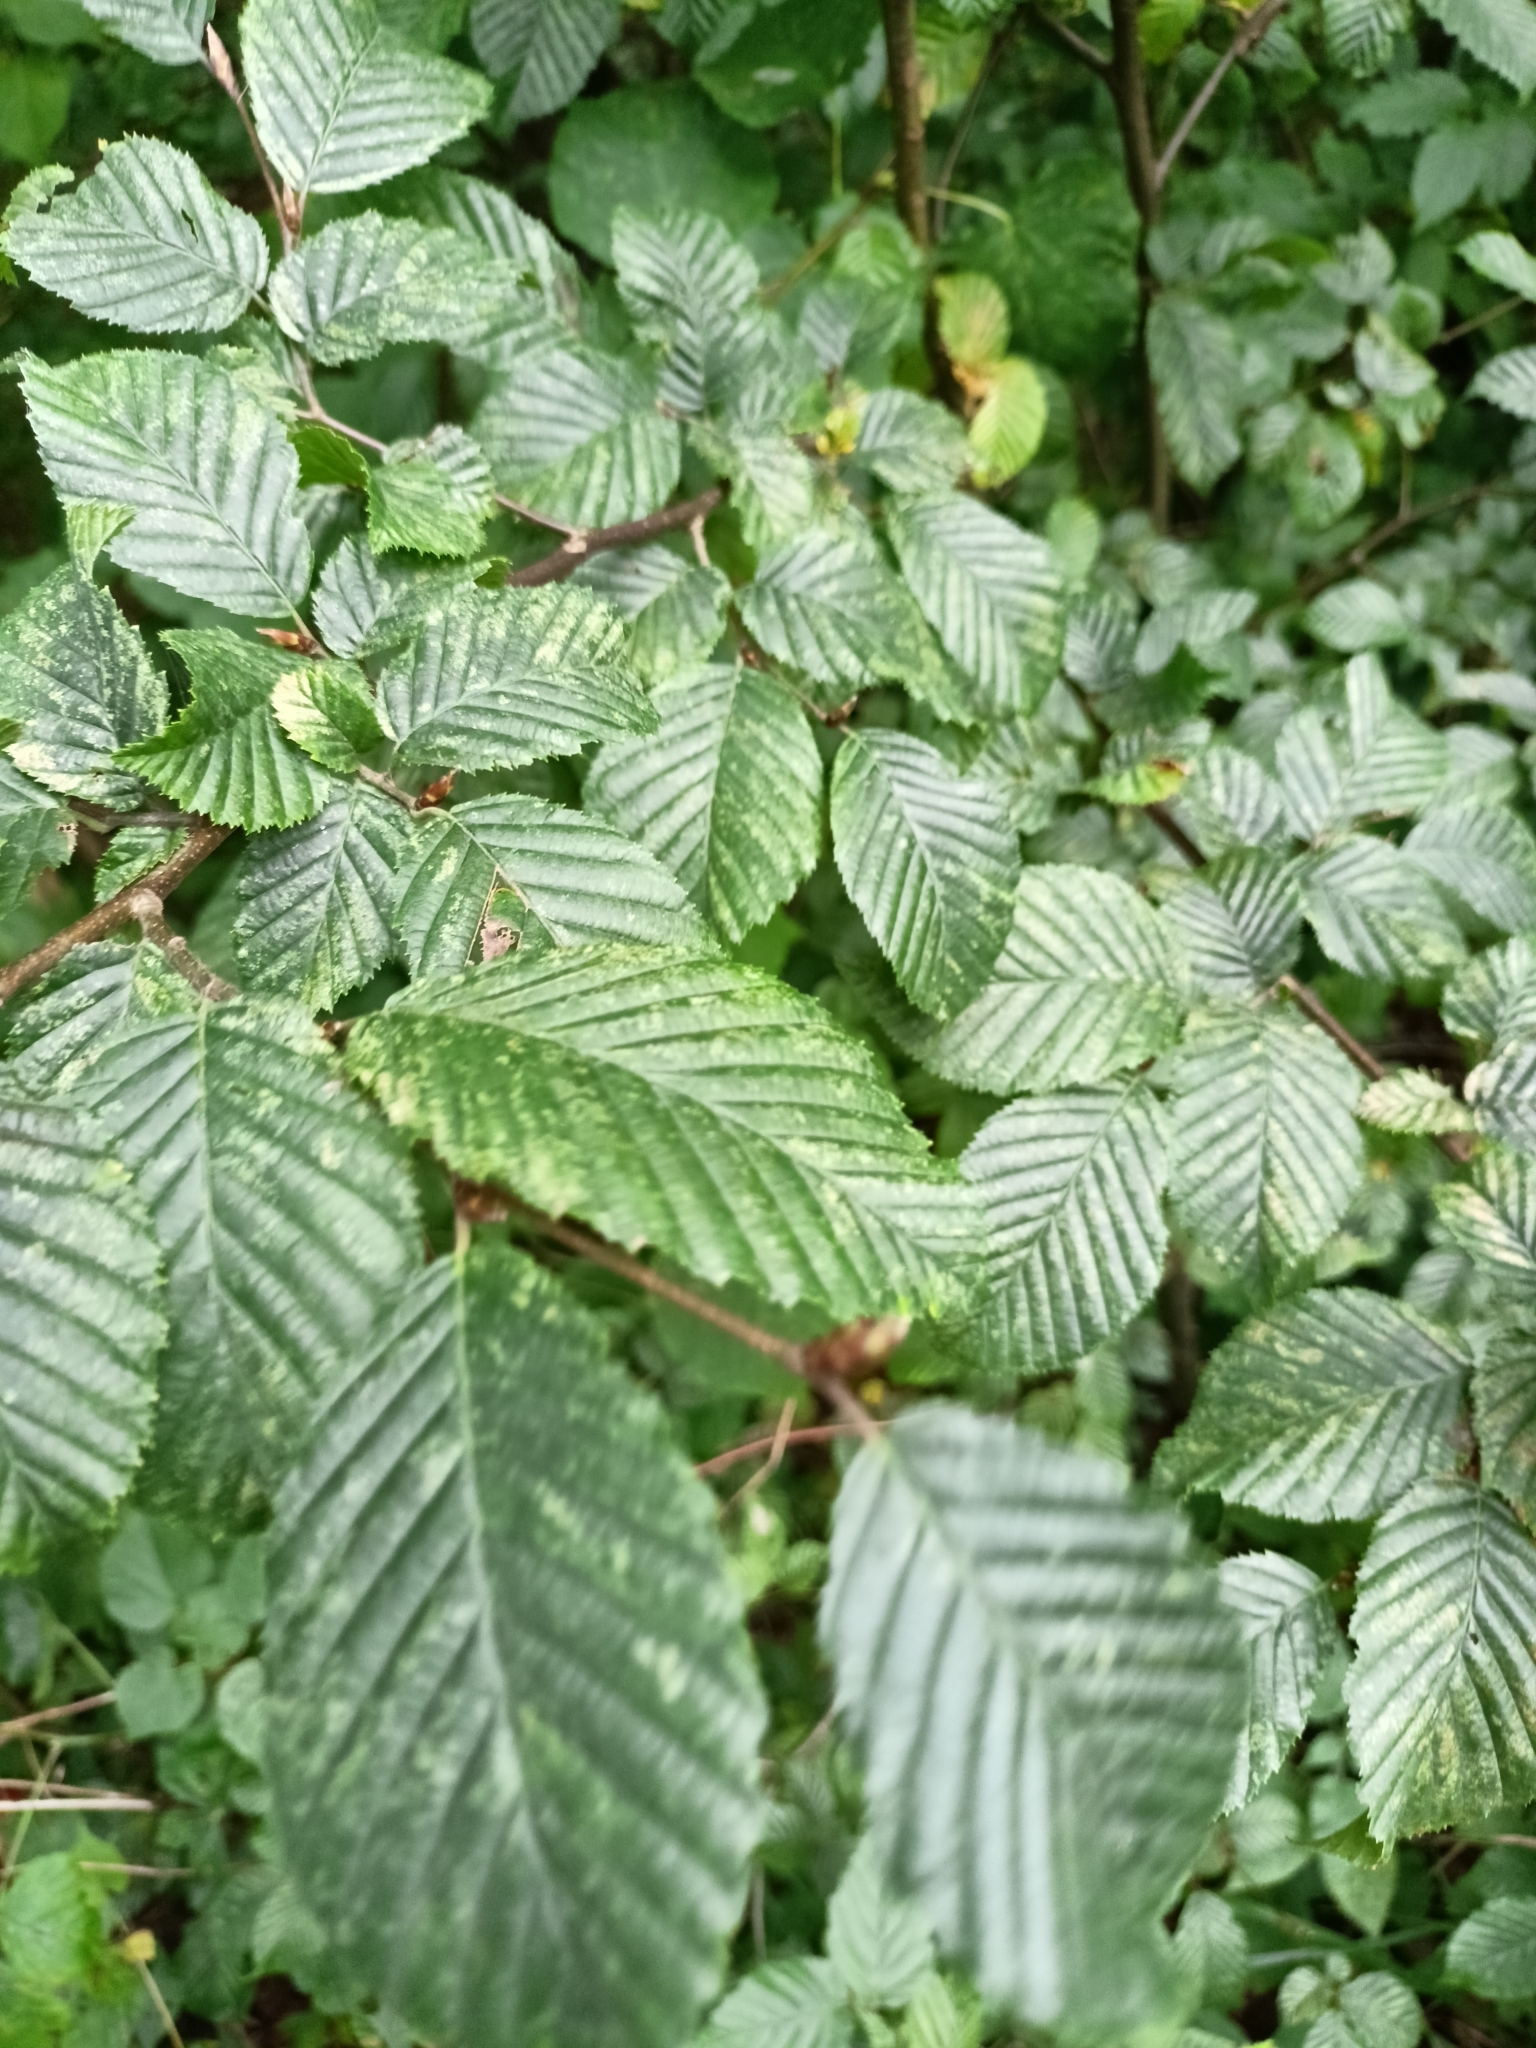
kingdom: Plantae
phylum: Tracheophyta
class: Magnoliopsida
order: Fagales
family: Betulaceae
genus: Carpinus
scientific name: Carpinus betulus
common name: Hornbeam
